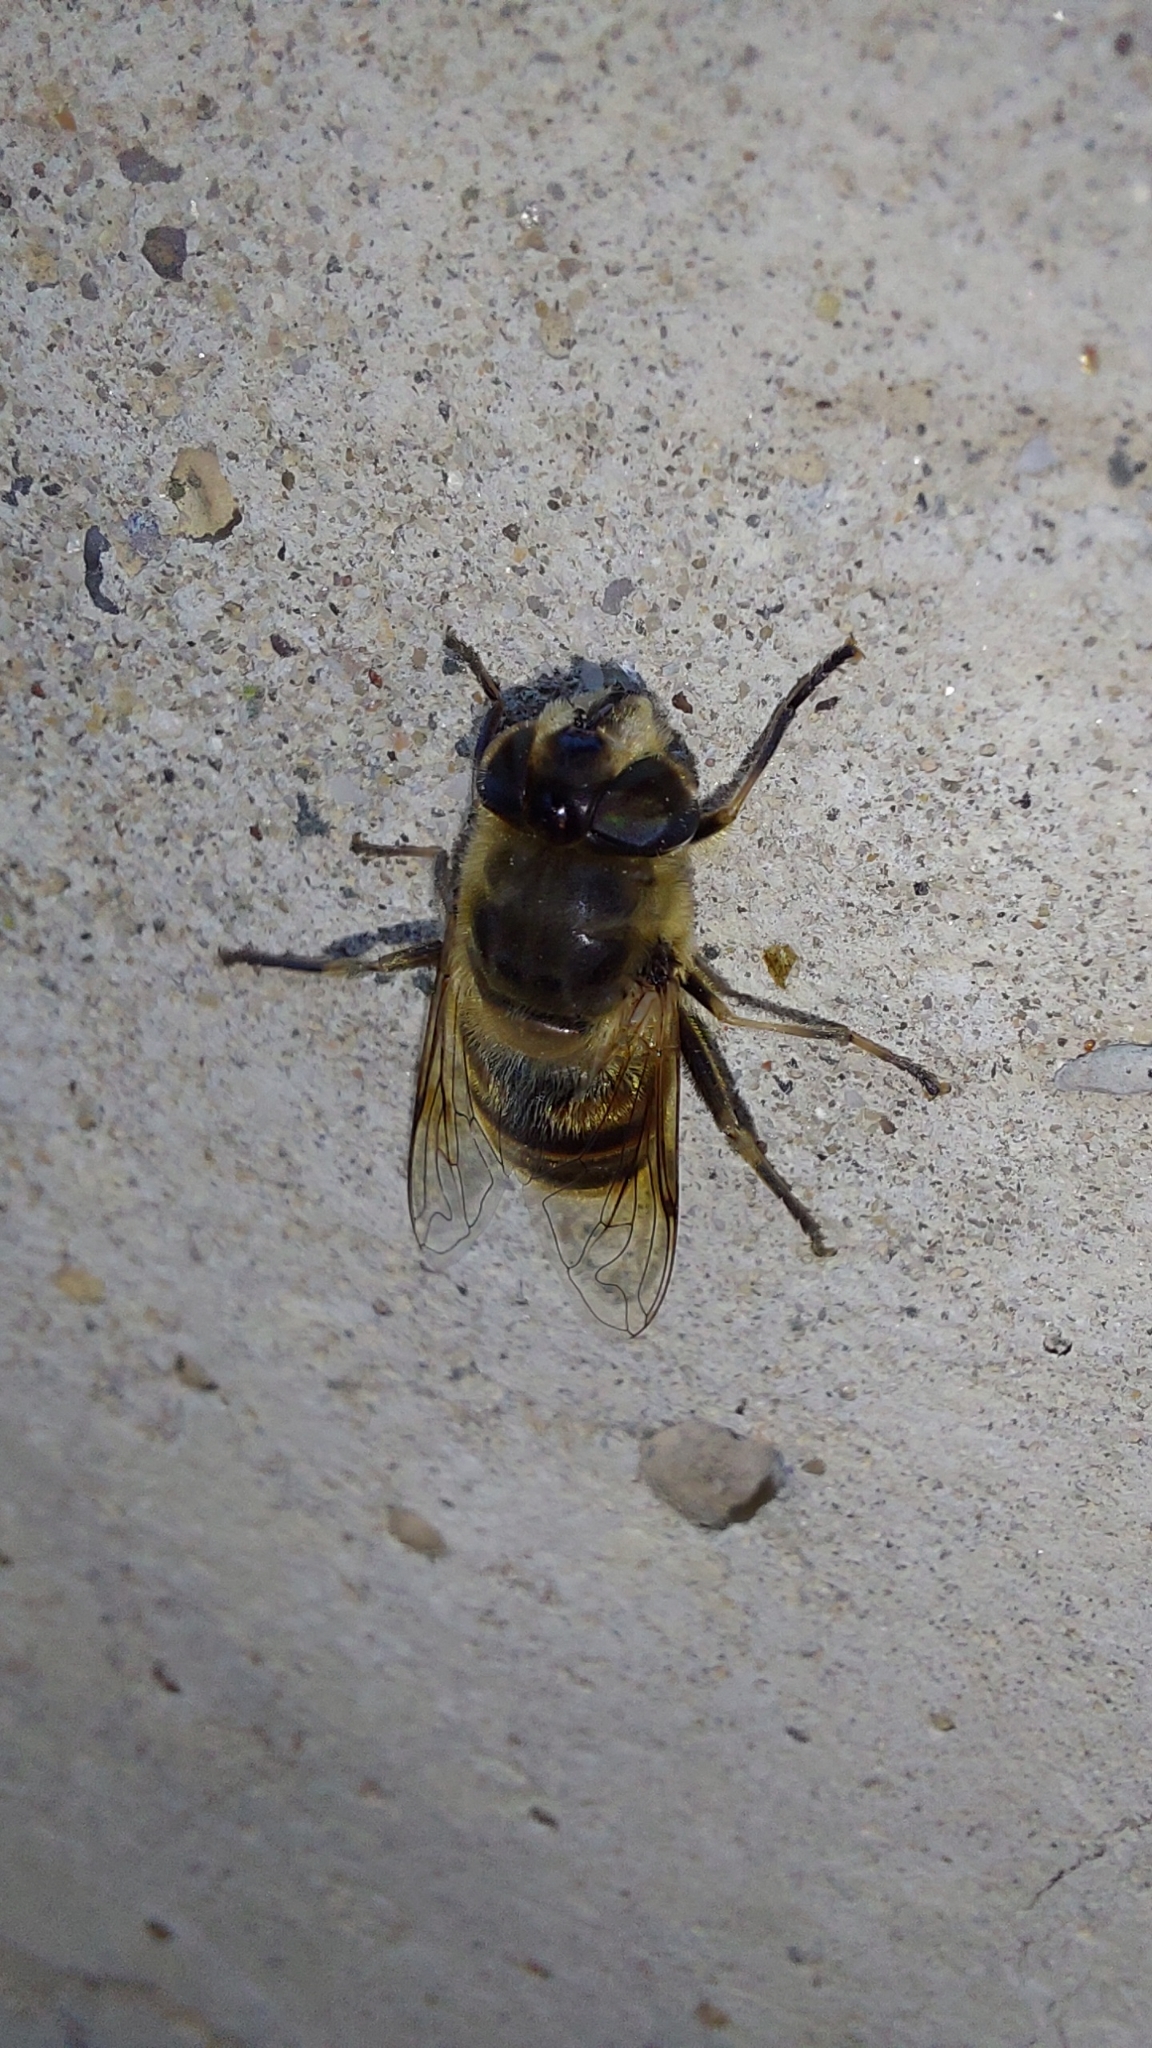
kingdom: Animalia
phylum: Arthropoda
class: Insecta
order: Diptera
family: Syrphidae
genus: Eristalis
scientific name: Eristalis tenax
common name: Drone fly
